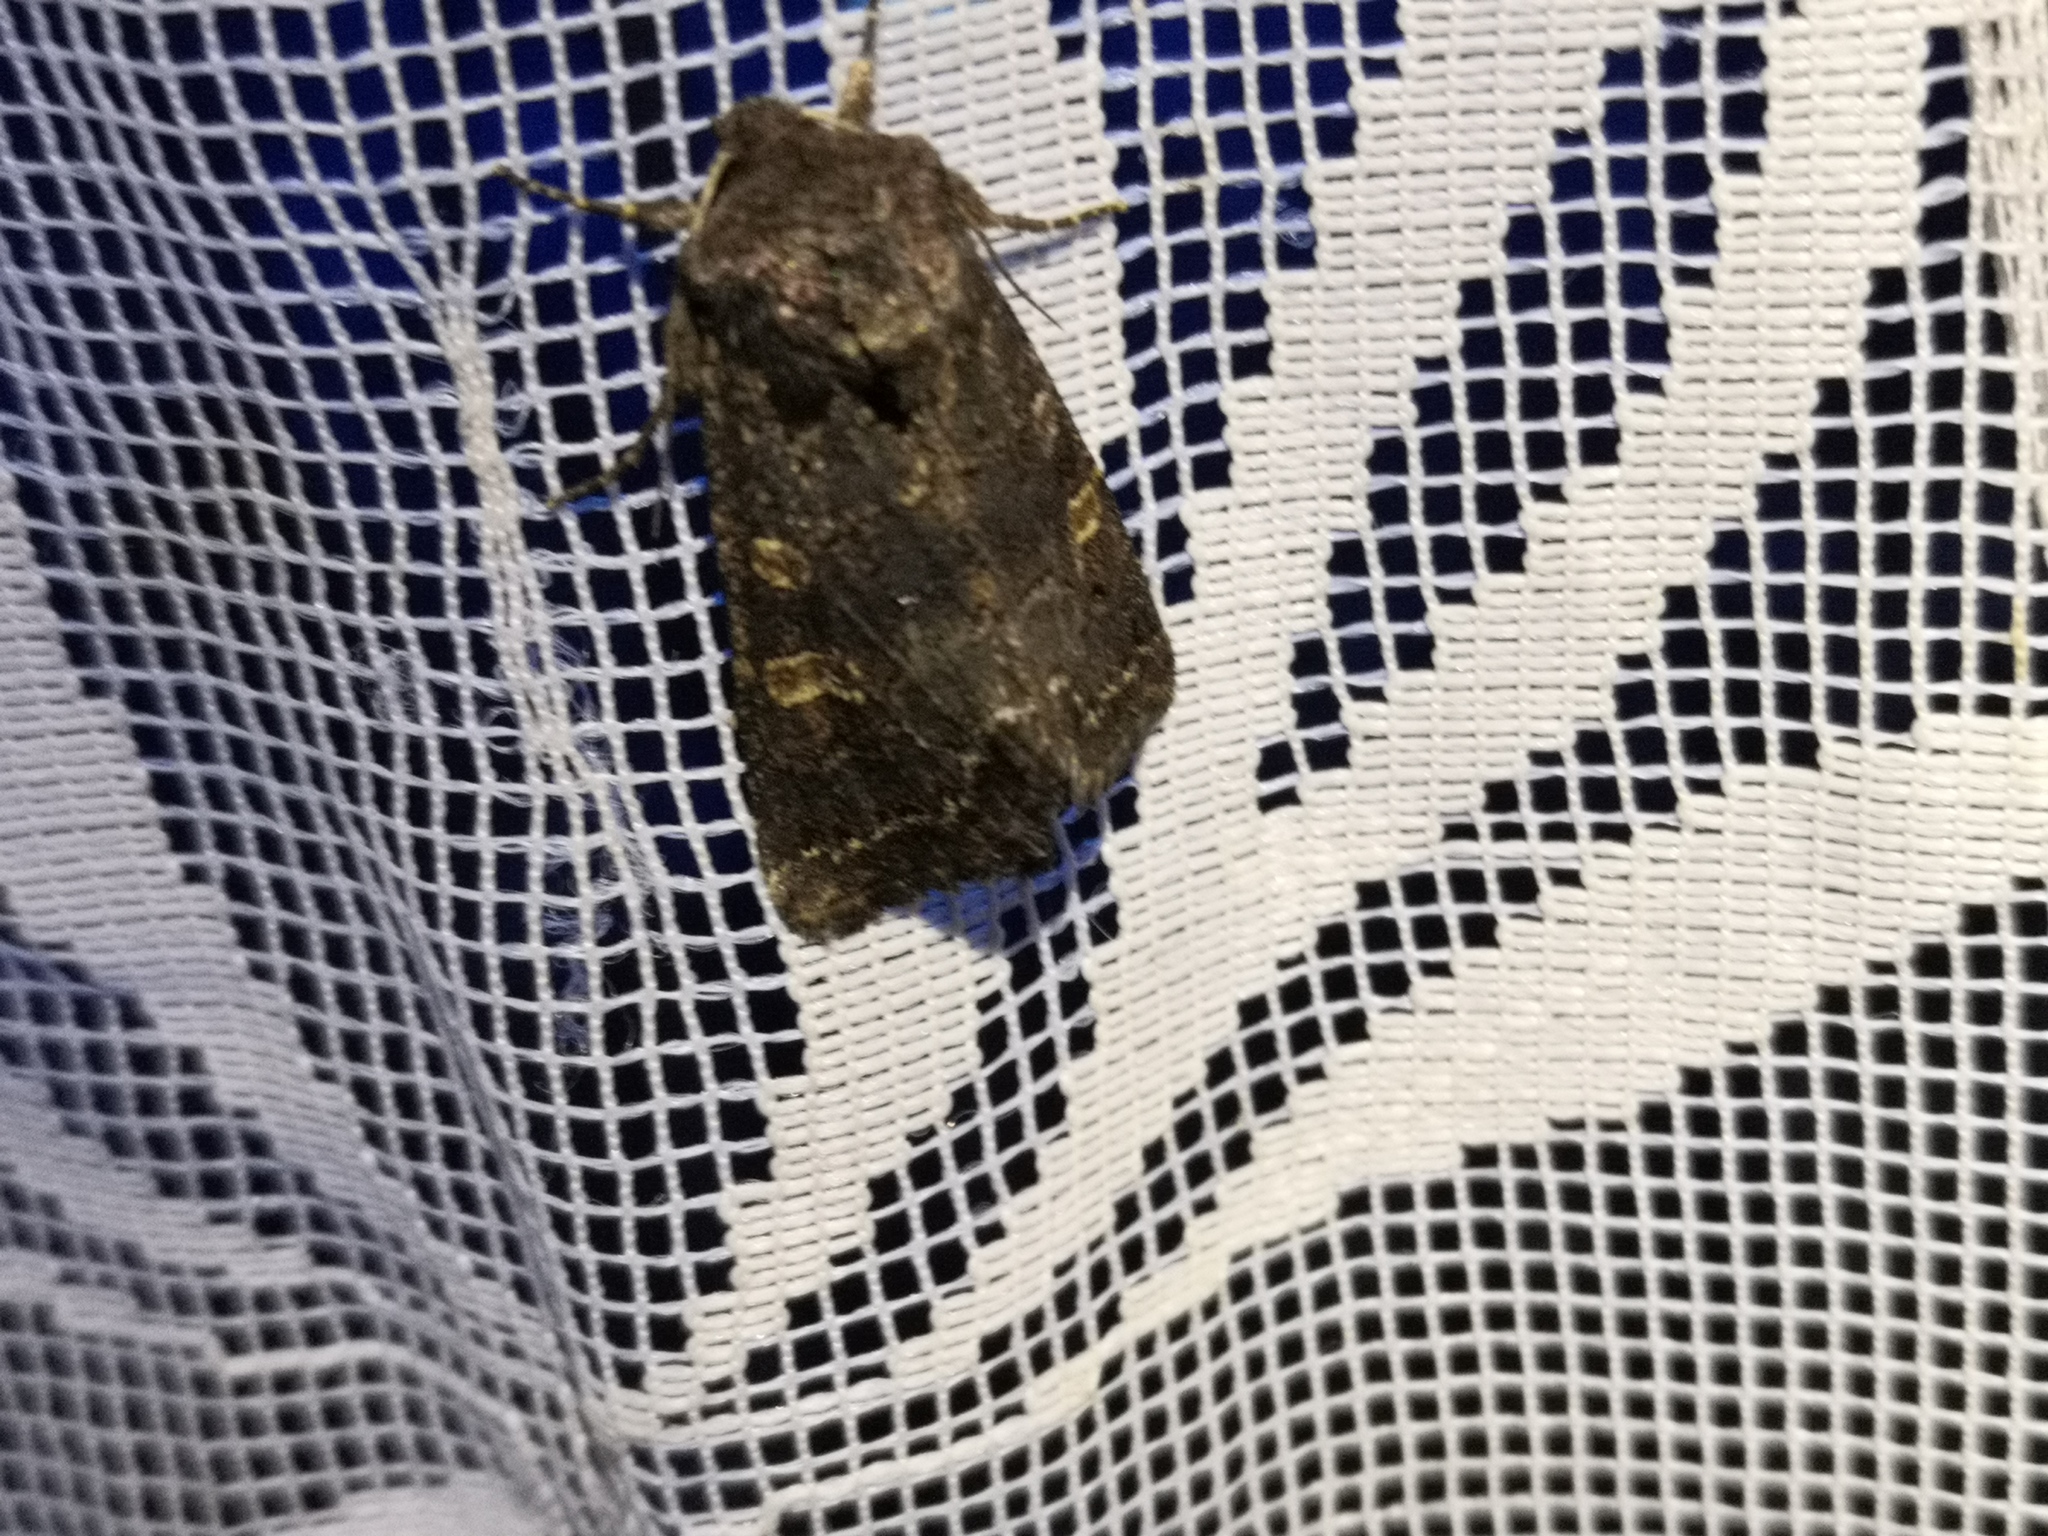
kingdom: Animalia
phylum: Arthropoda
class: Insecta
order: Lepidoptera
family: Noctuidae
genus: Tholera
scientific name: Tholera cespitis
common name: Hedge rustic
